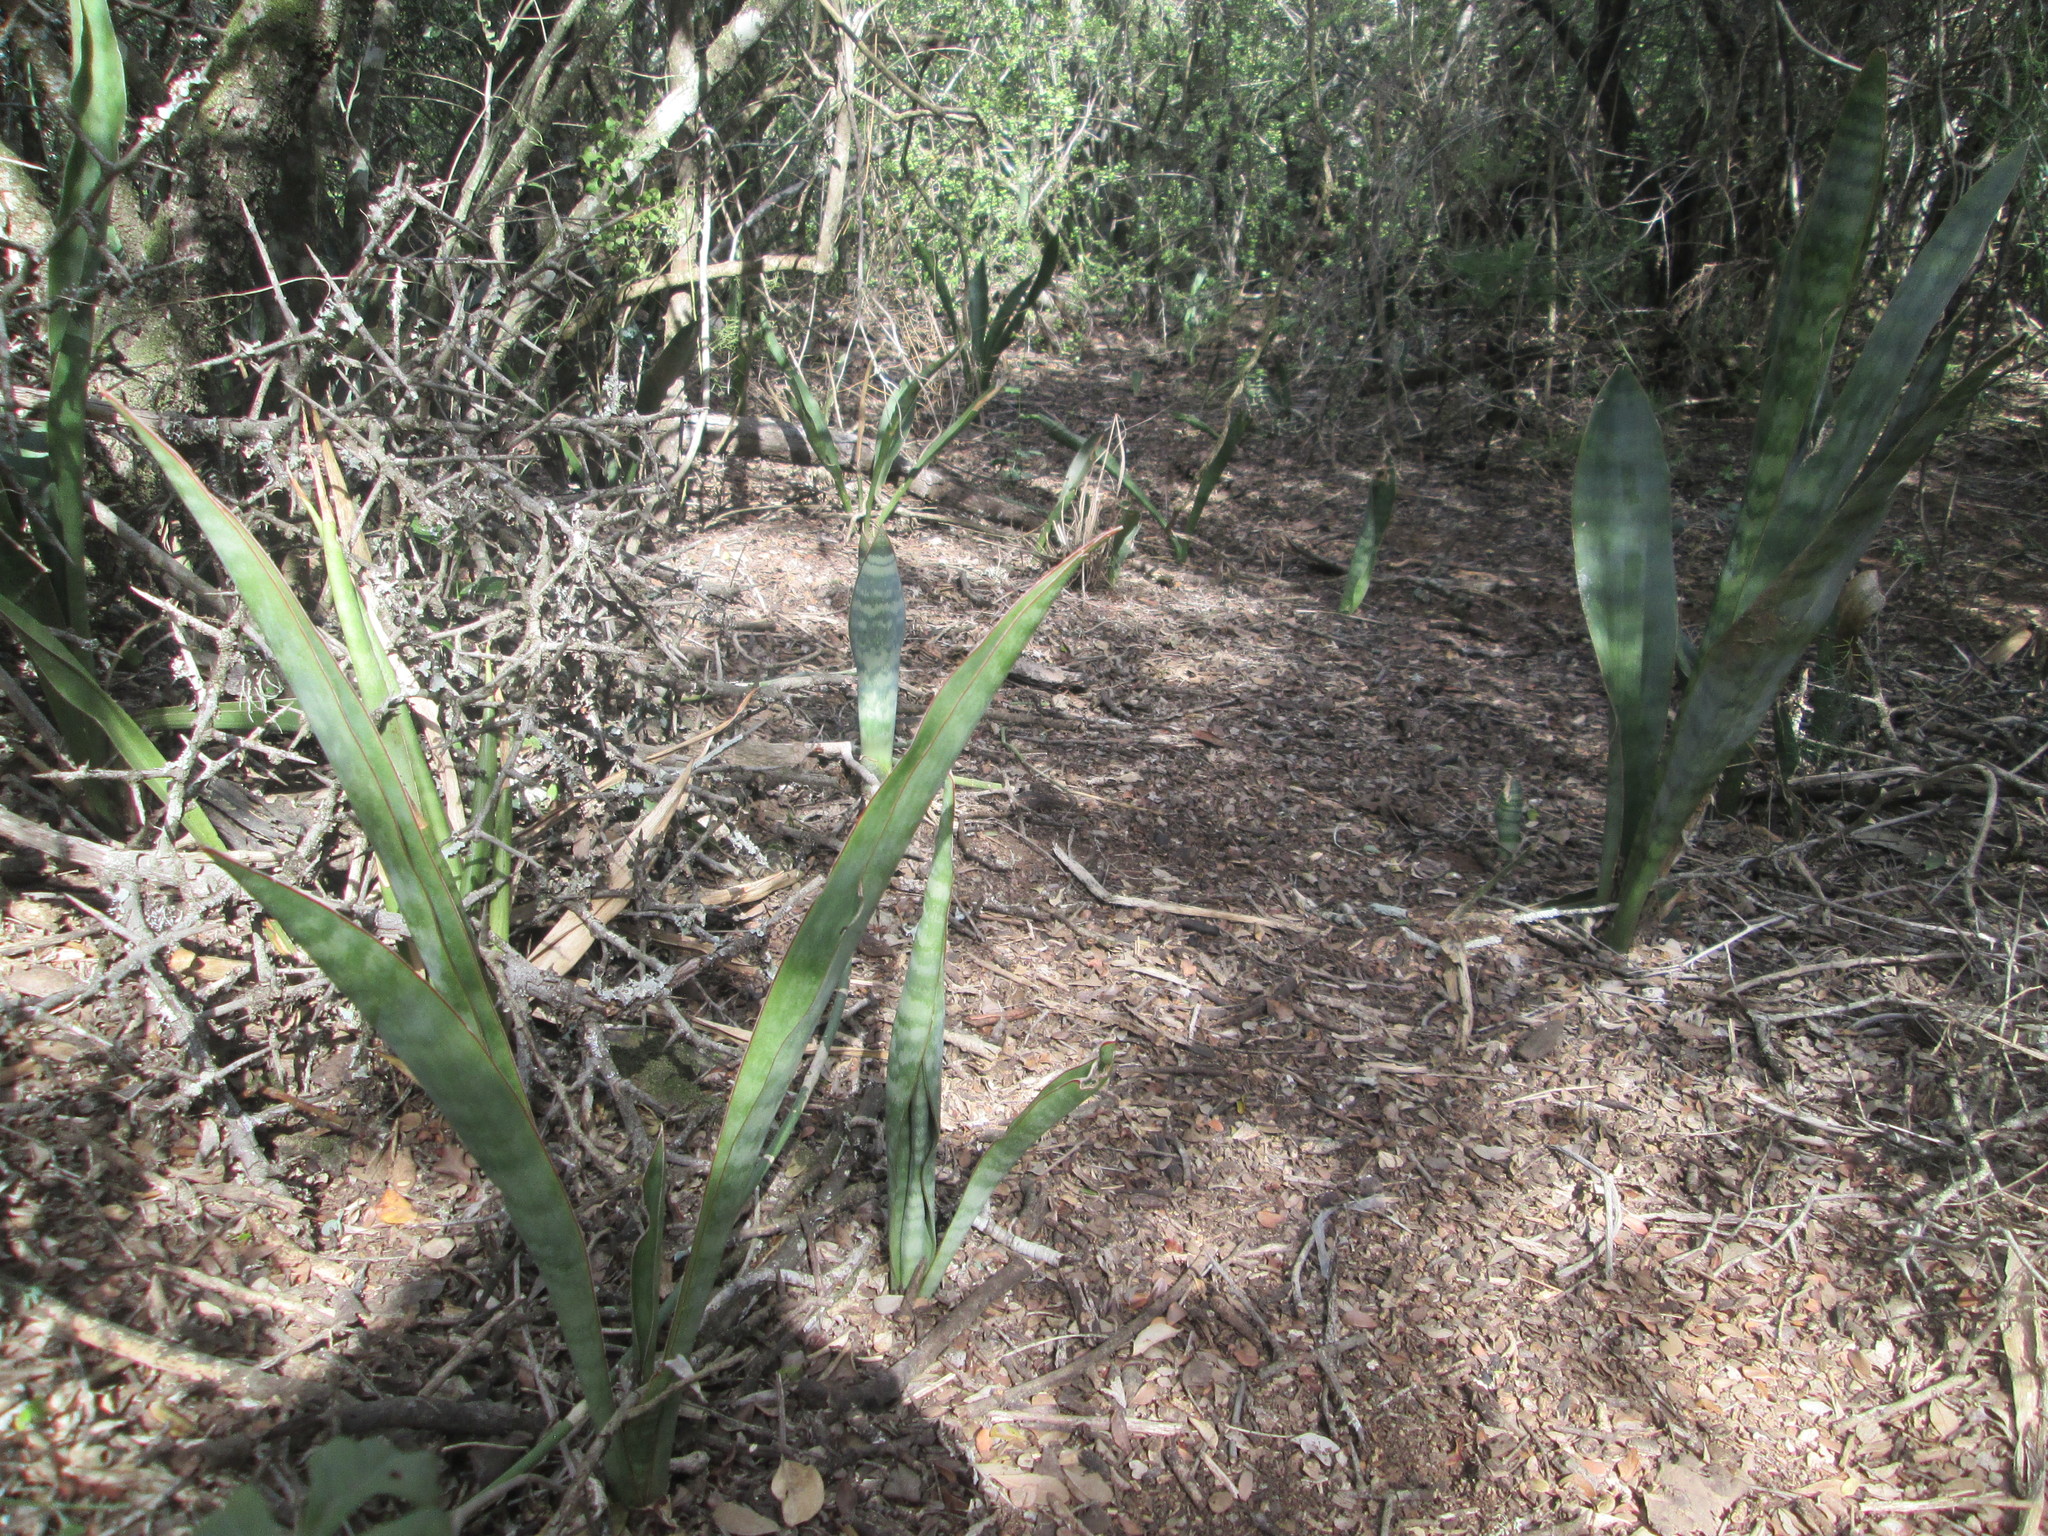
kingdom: Plantae
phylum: Tracheophyta
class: Liliopsida
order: Asparagales
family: Asparagaceae
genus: Dracaena
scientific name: Dracaena hyacinthoides
